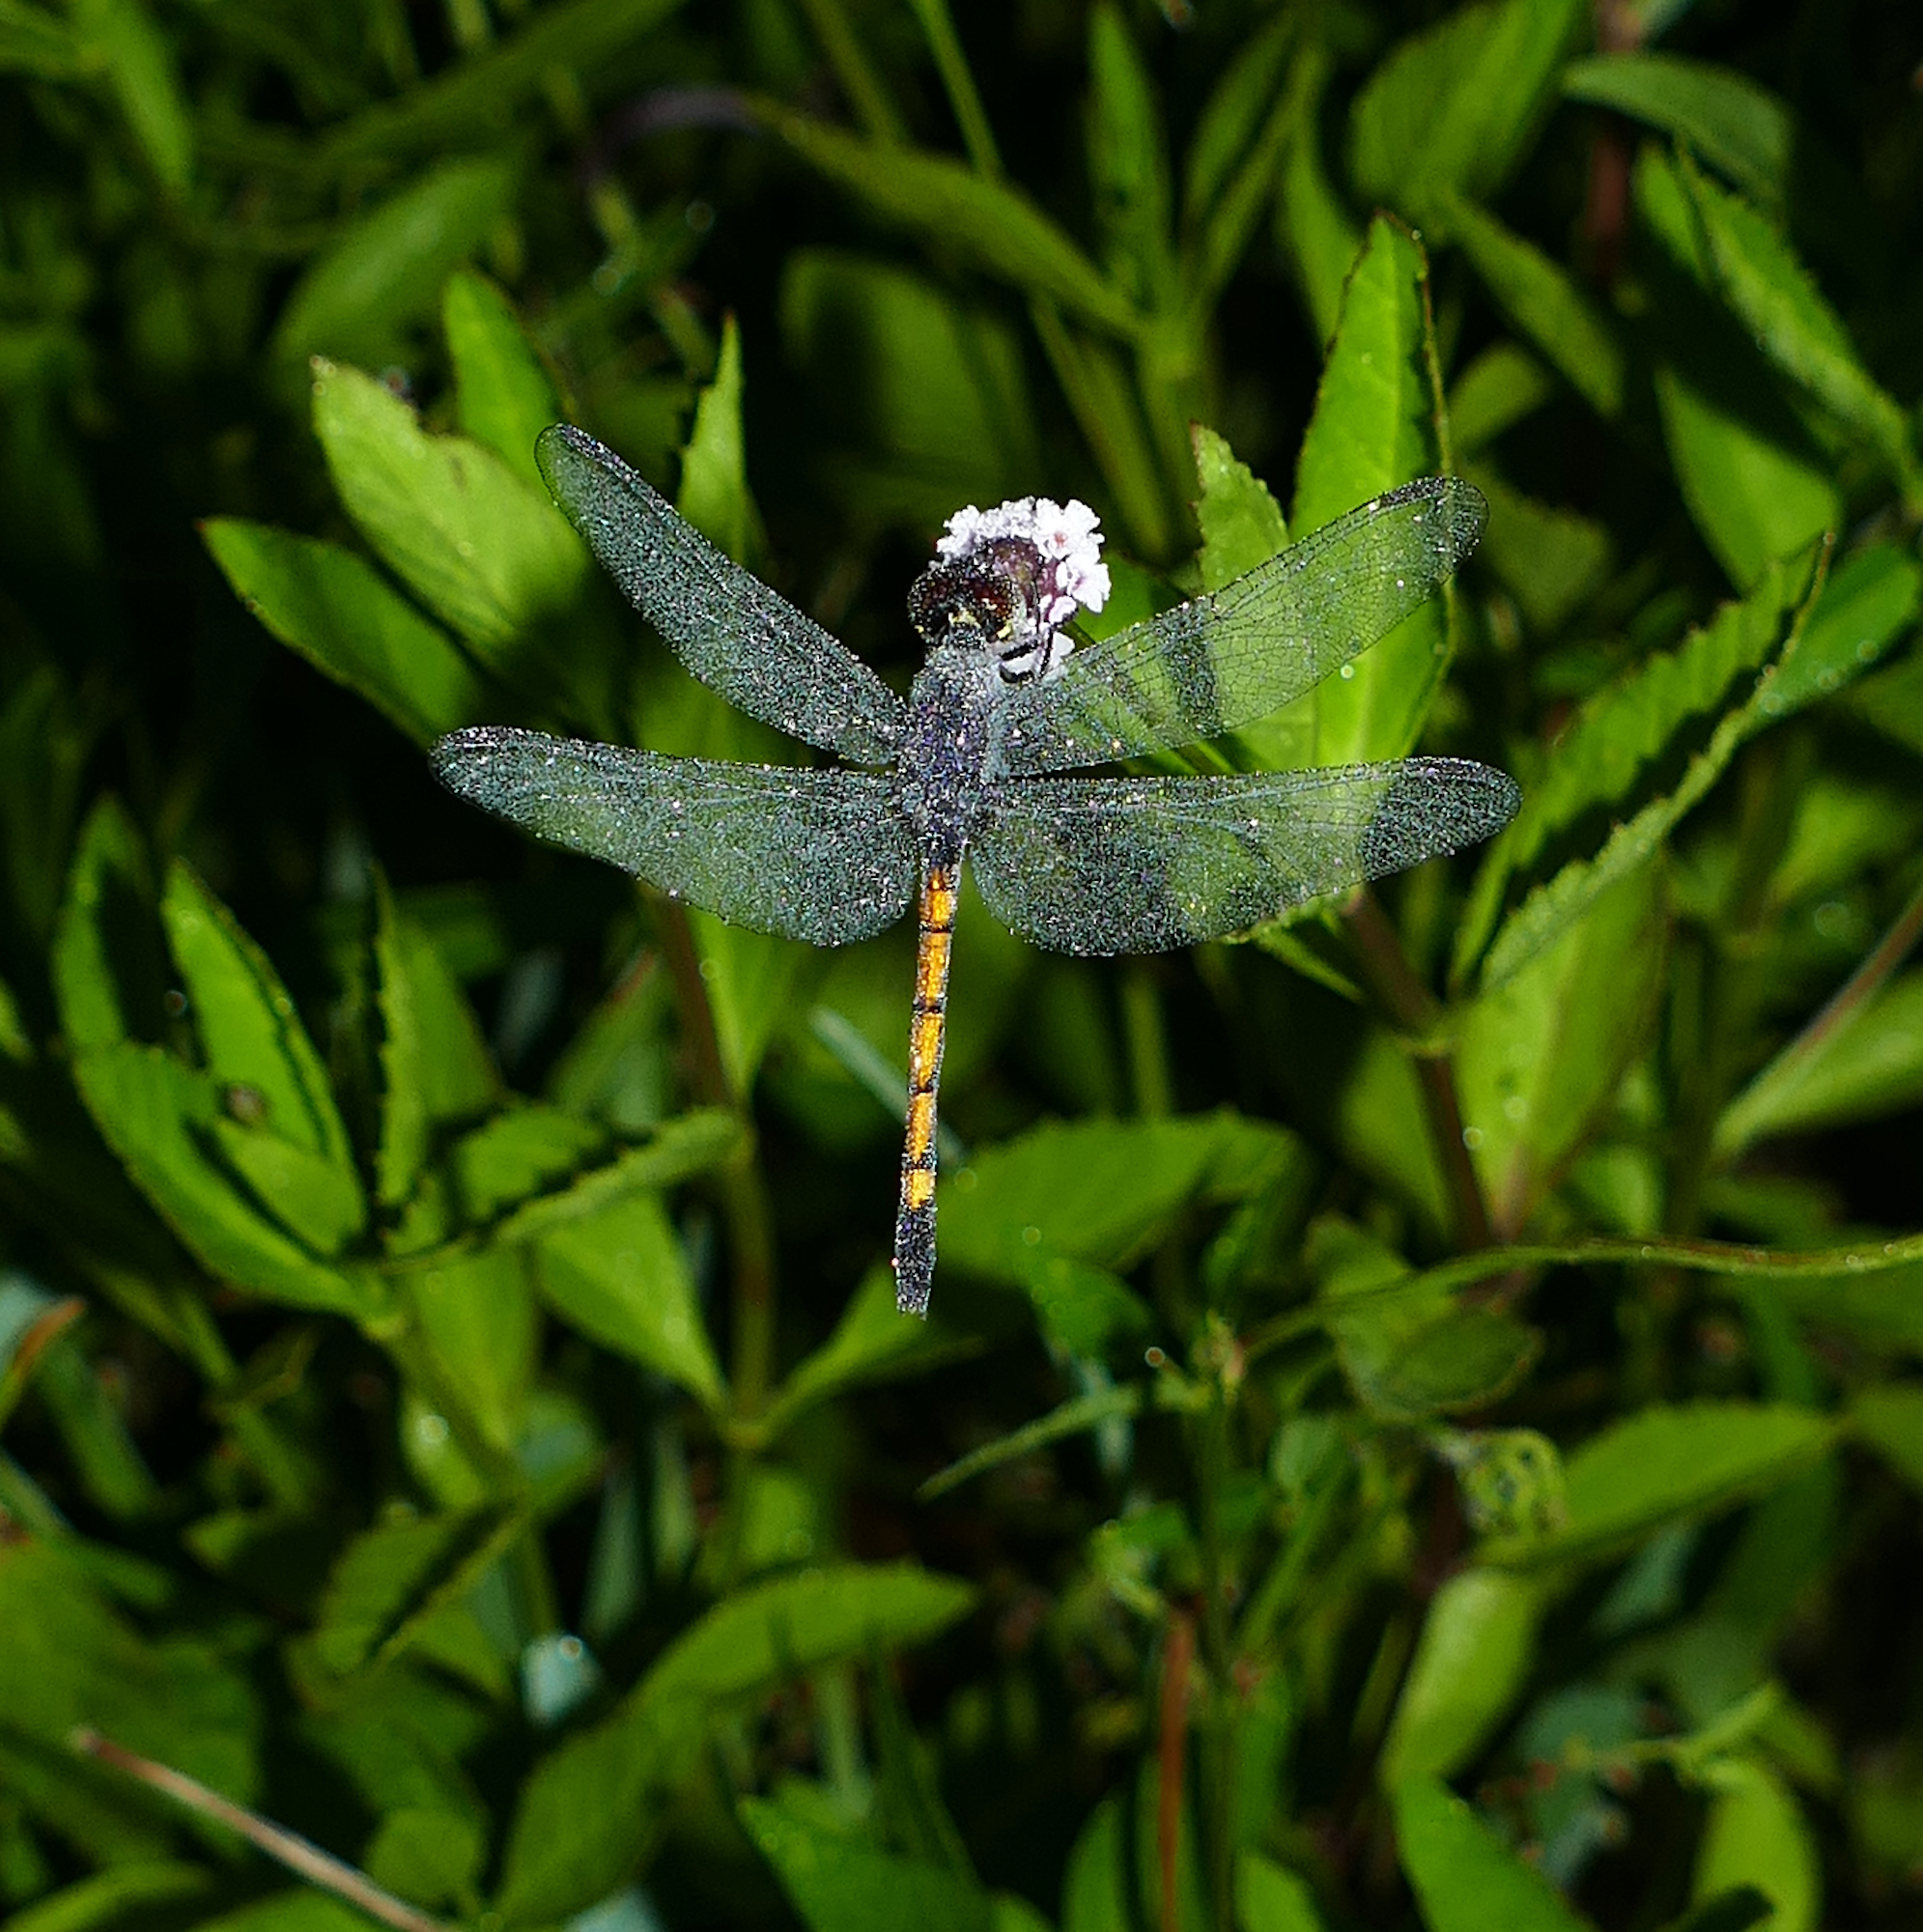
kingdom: Animalia
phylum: Arthropoda
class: Insecta
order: Odonata
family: Libellulidae
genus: Erythrodiplax
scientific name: Erythrodiplax berenice
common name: Seaside dragonlet
